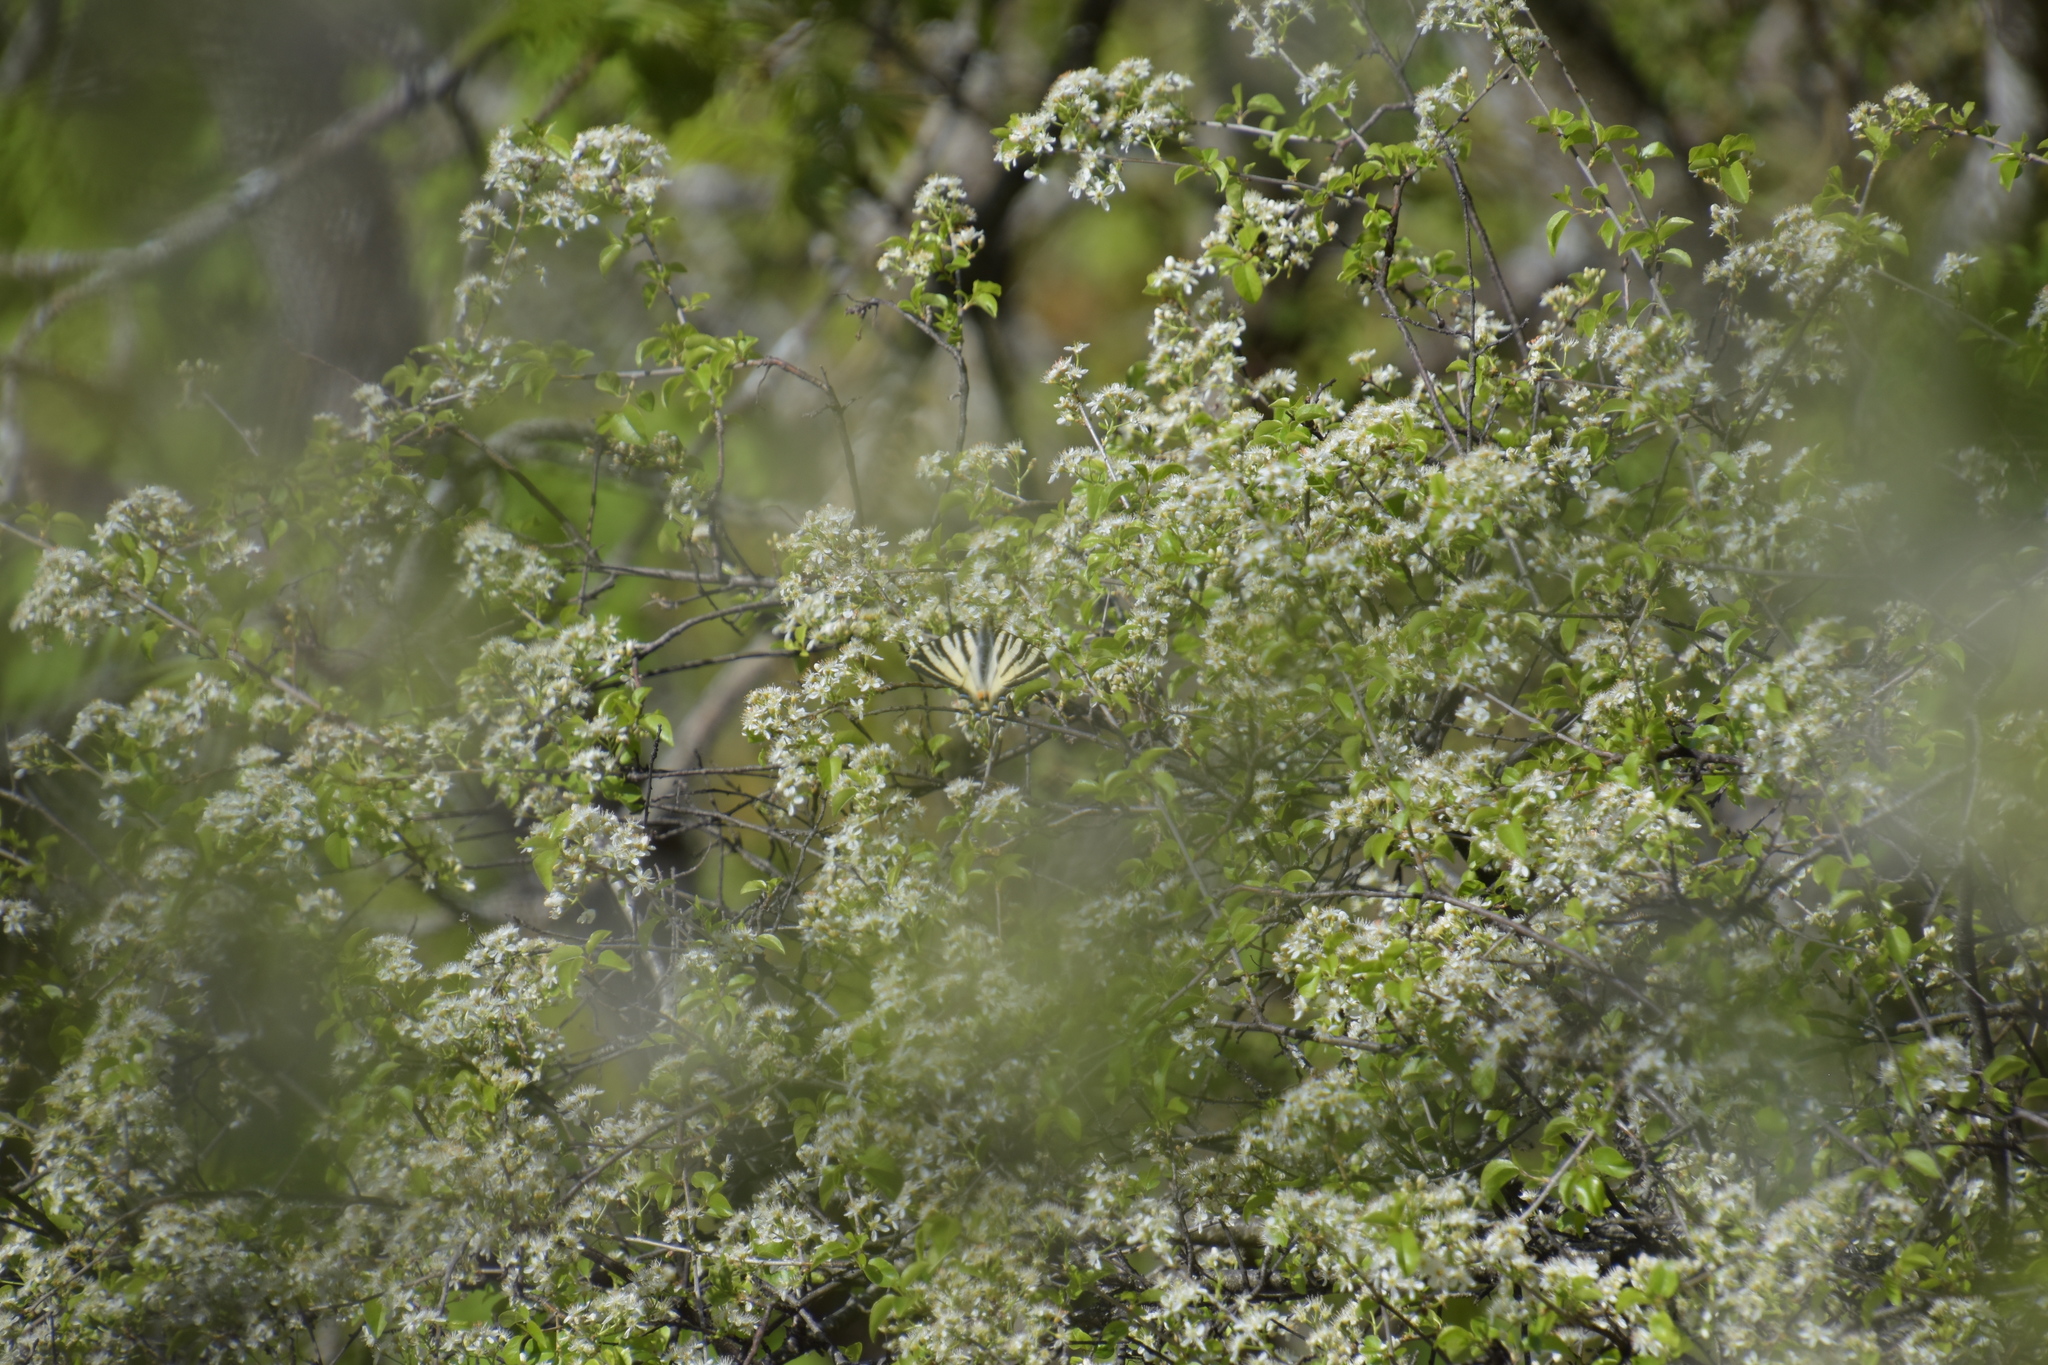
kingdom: Animalia
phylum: Arthropoda
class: Insecta
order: Lepidoptera
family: Papilionidae
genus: Iphiclides
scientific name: Iphiclides podalirius
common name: Scarce swallowtail
